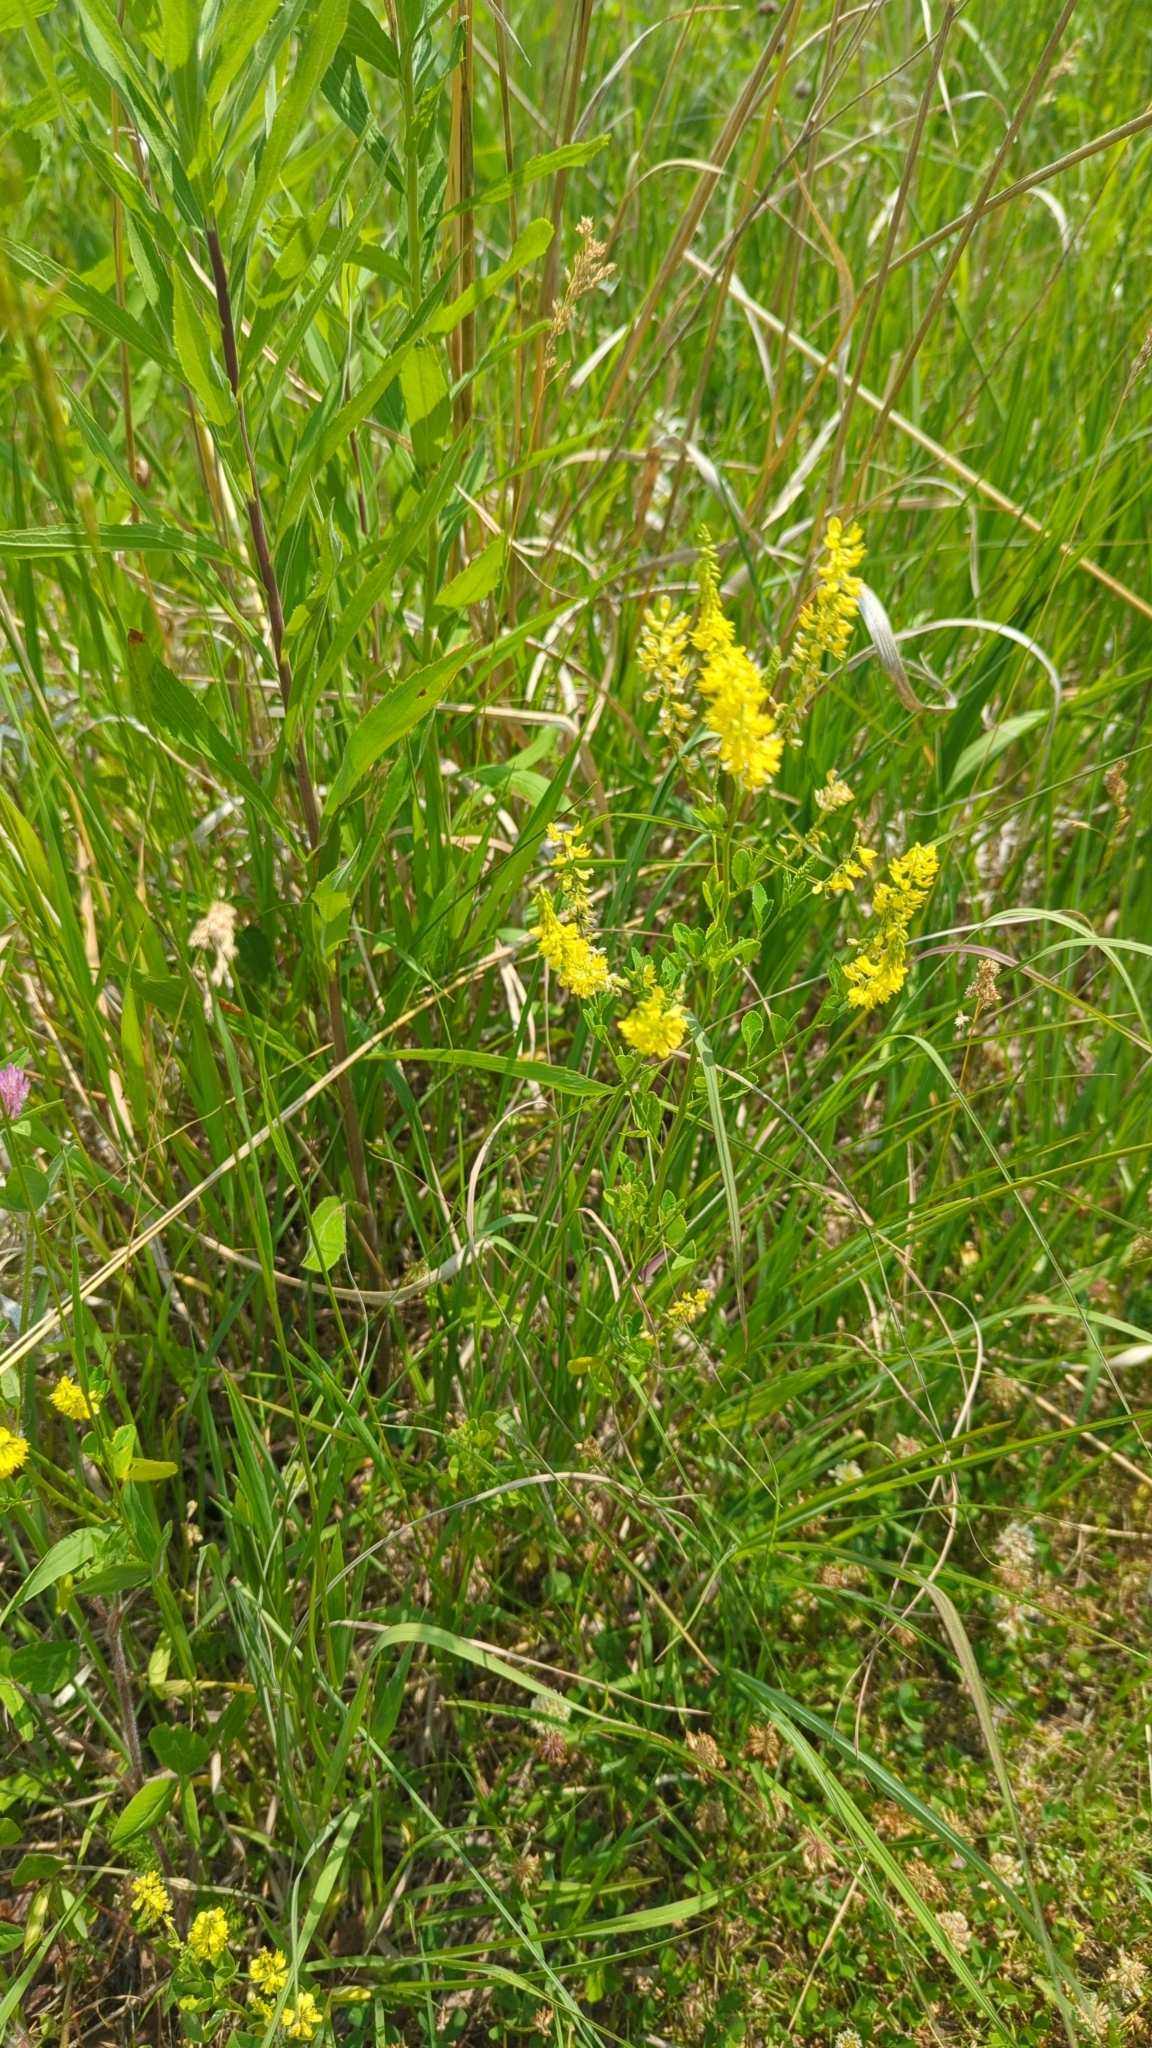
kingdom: Plantae
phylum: Tracheophyta
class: Magnoliopsida
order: Fabales
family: Fabaceae
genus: Melilotus
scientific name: Melilotus officinalis
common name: Sweetclover
